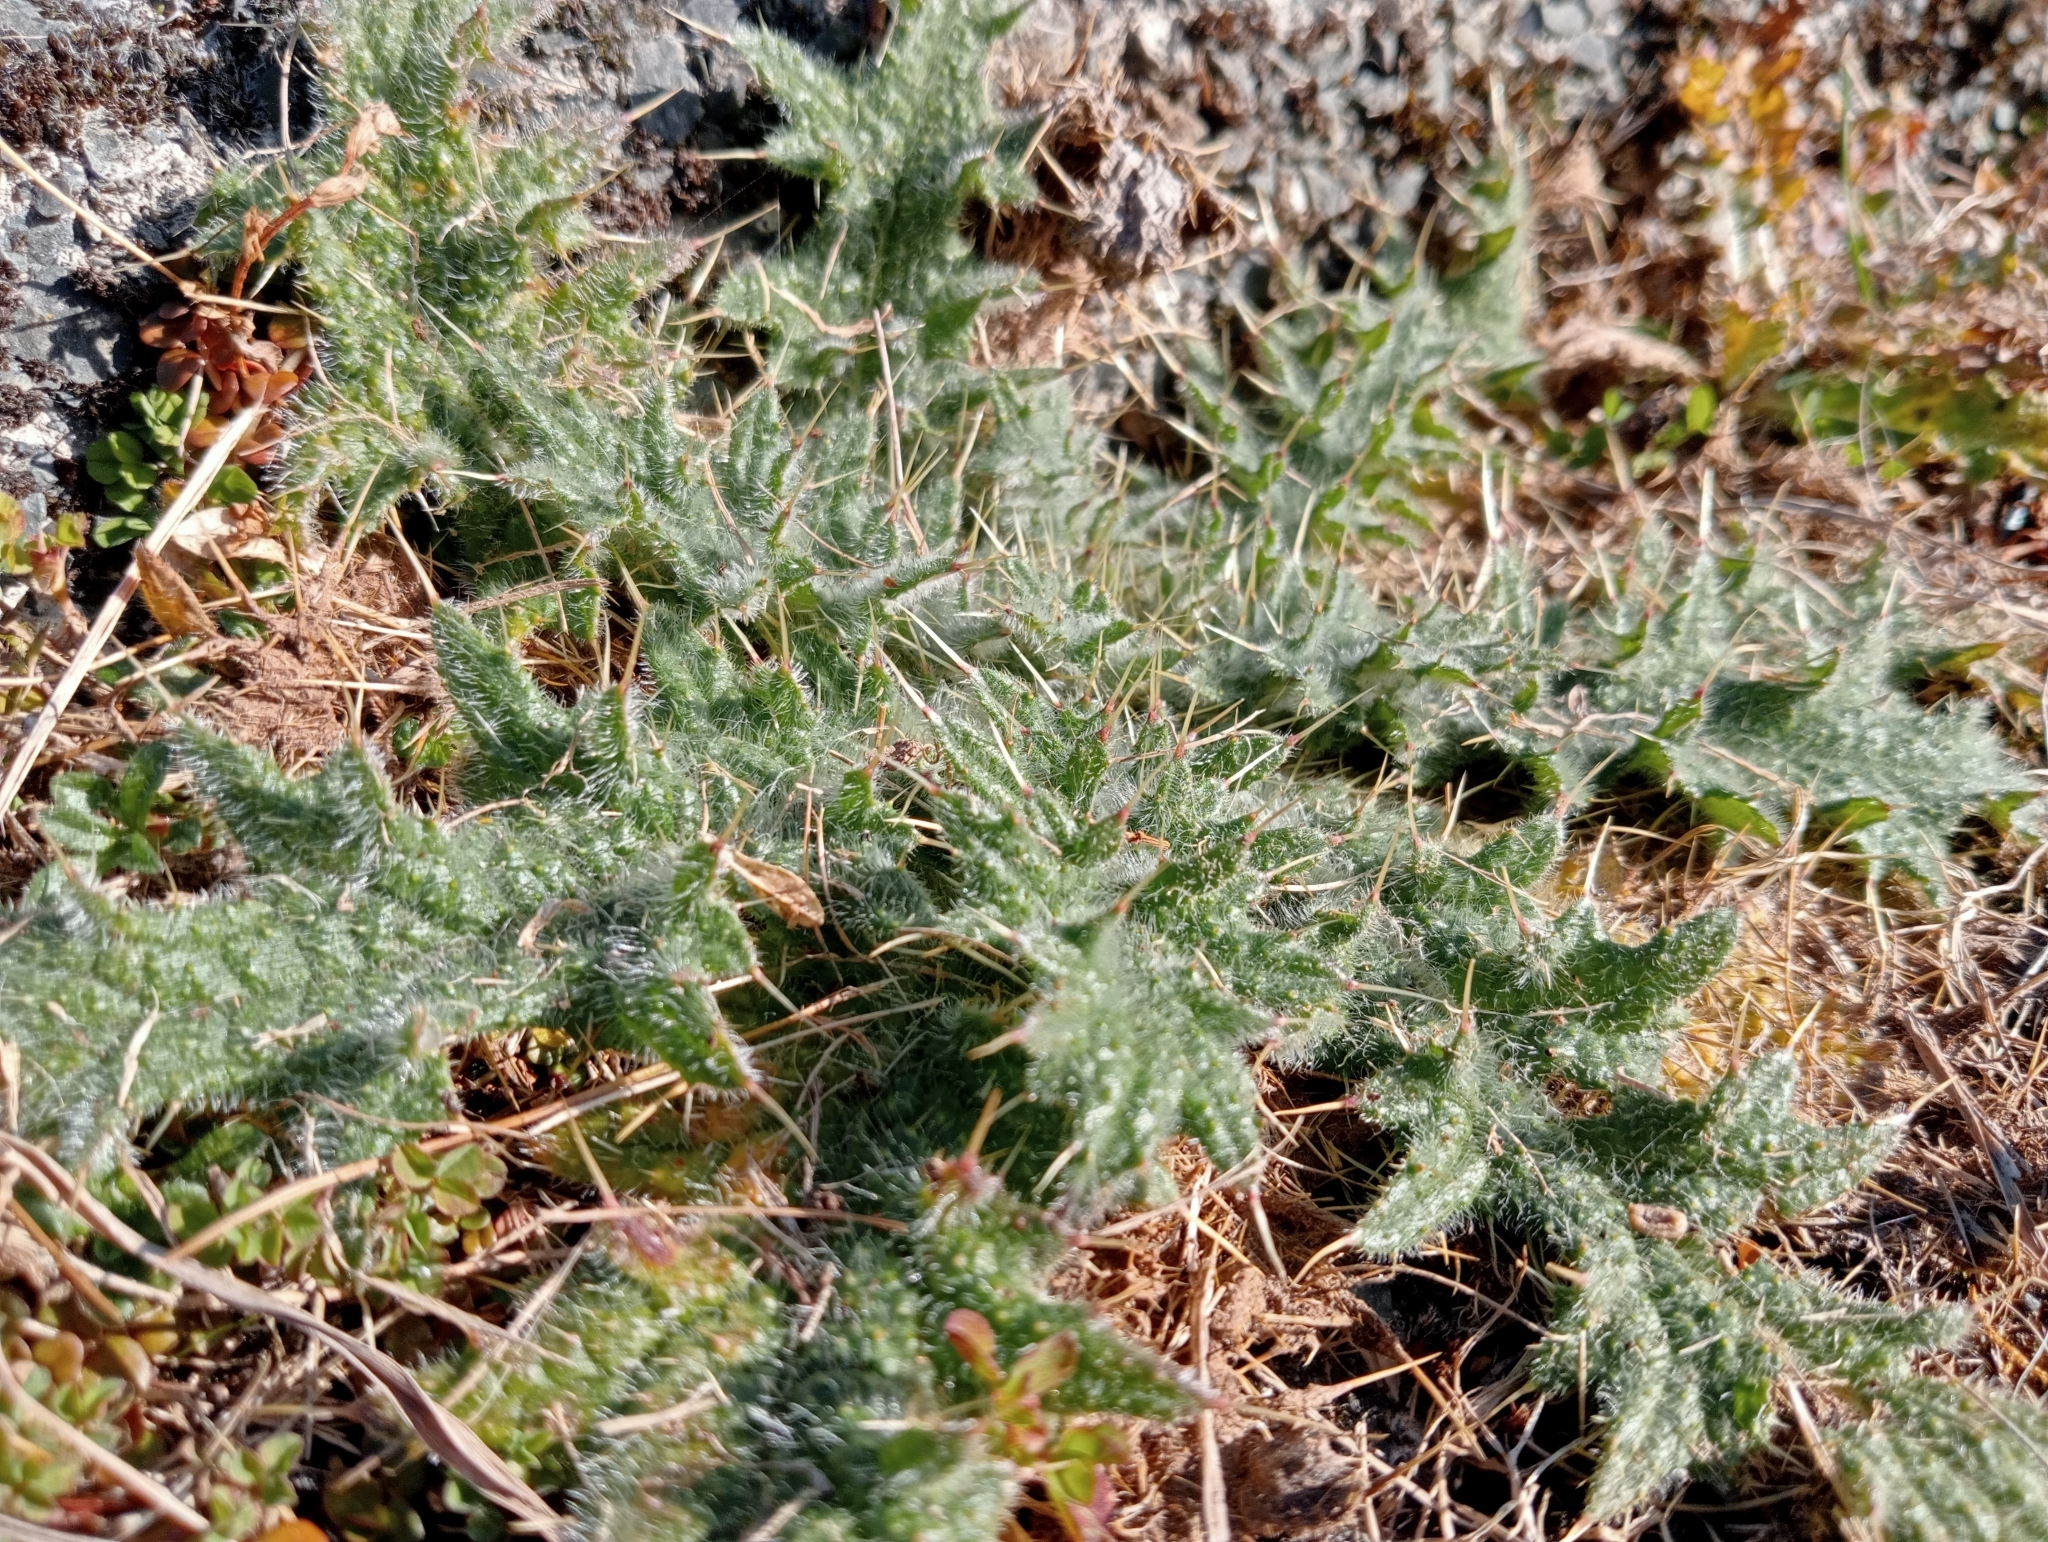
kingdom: Plantae
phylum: Tracheophyta
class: Magnoliopsida
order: Asterales
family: Asteraceae
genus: Cirsium
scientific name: Cirsium vulgare
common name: Bull thistle
